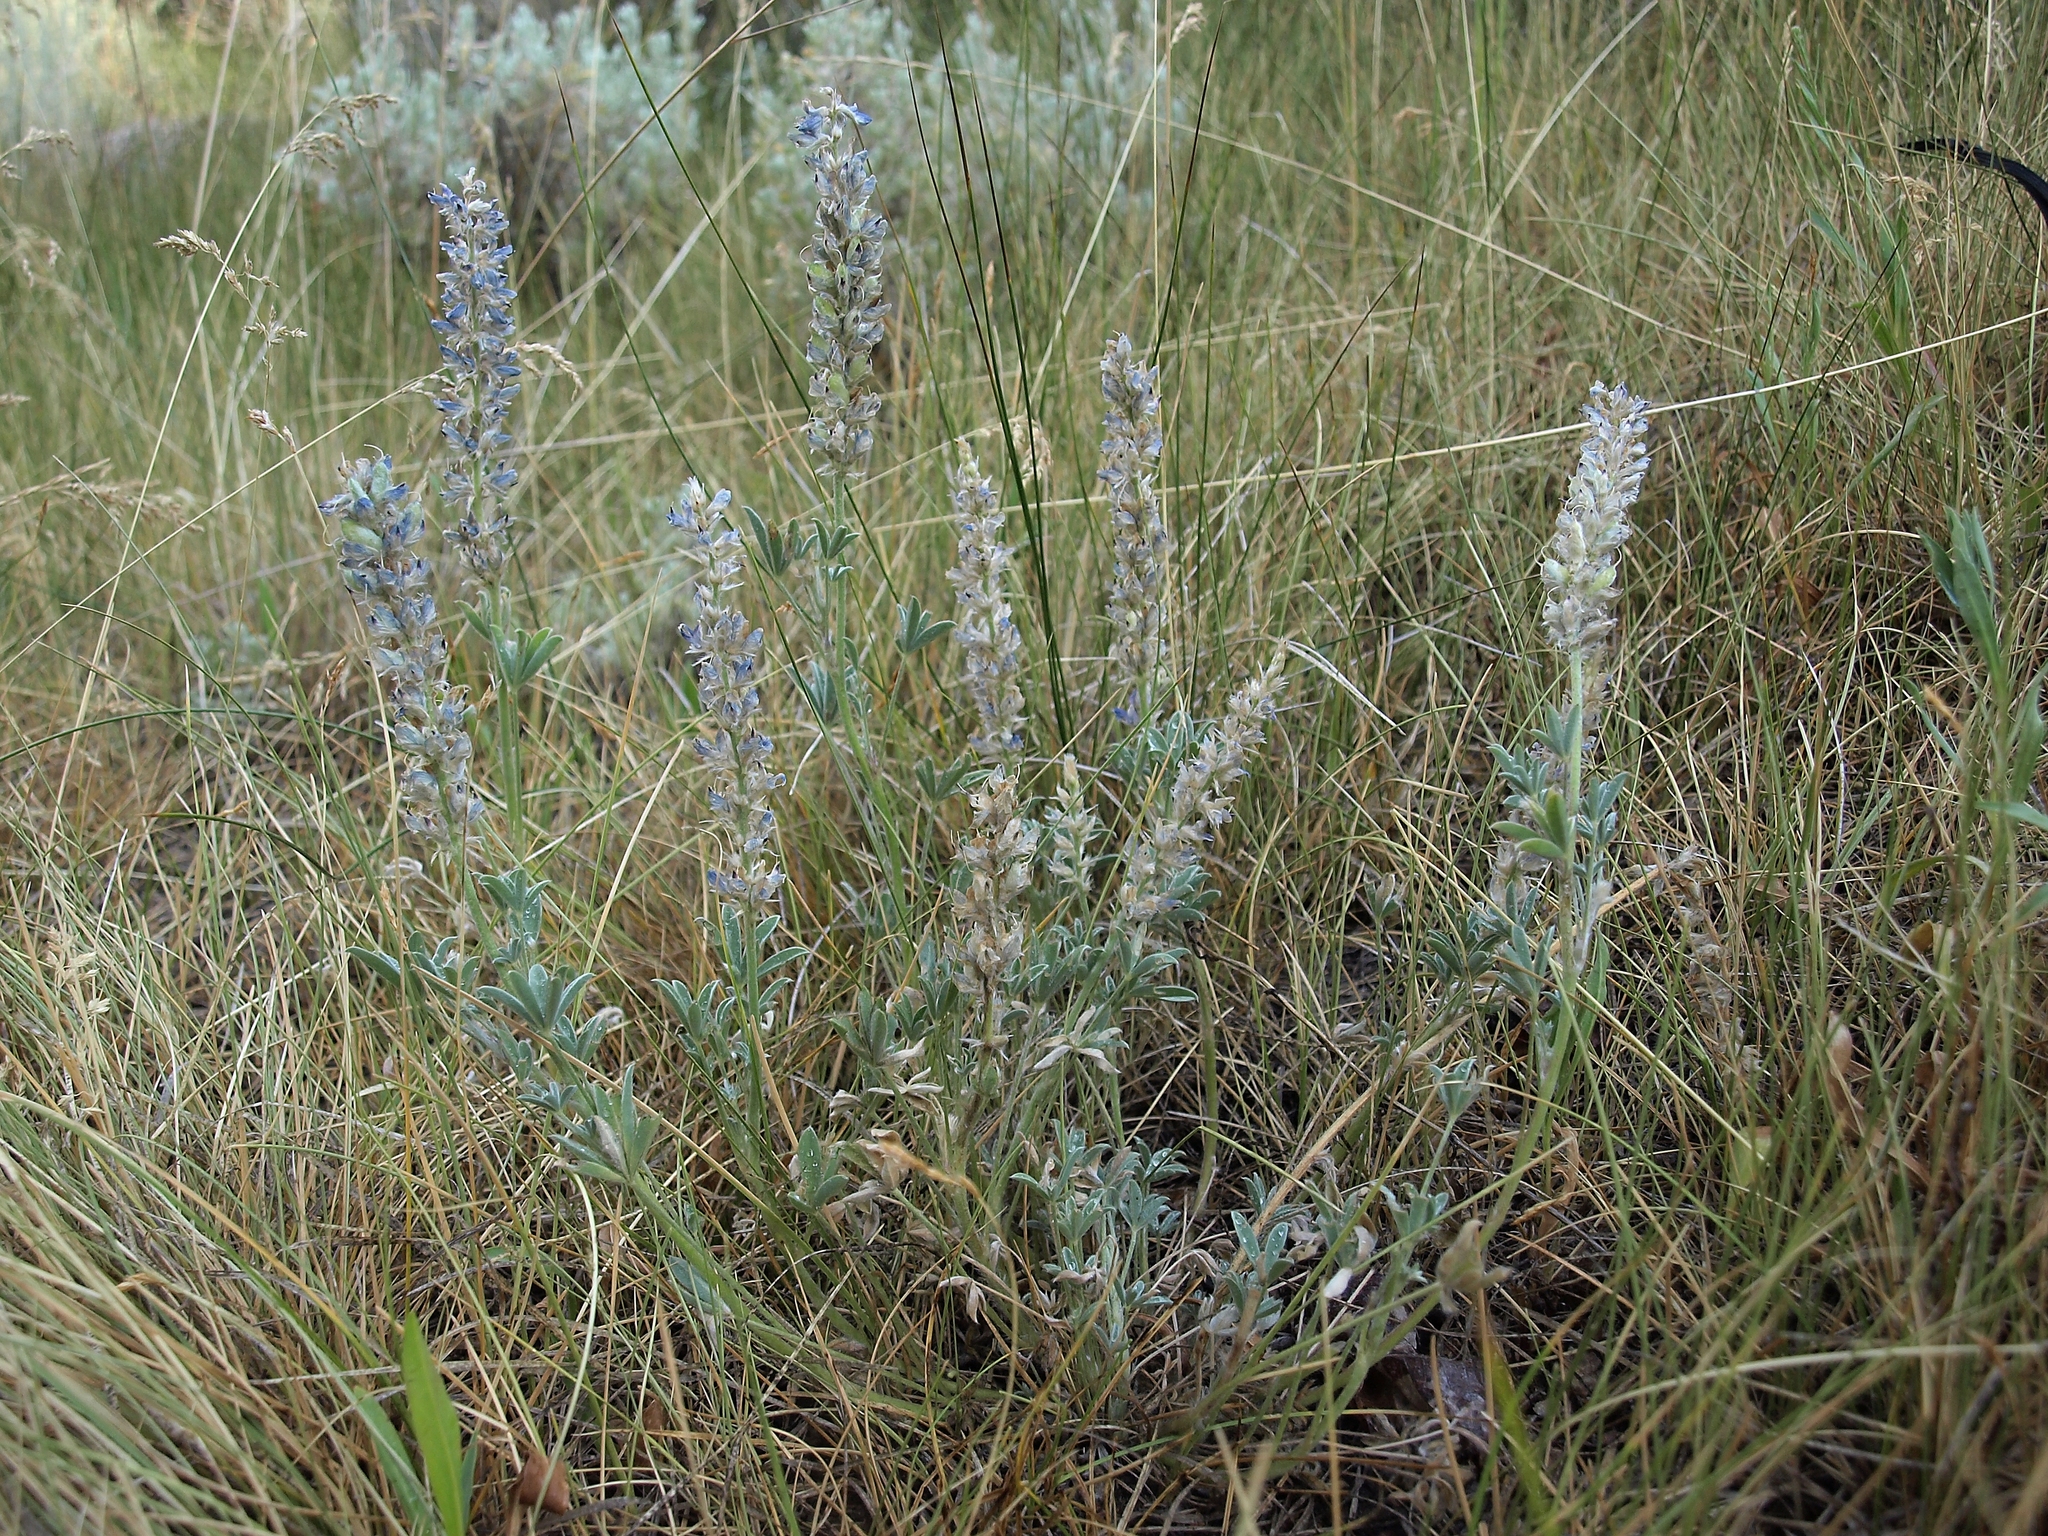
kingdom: Plantae
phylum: Tracheophyta
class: Magnoliopsida
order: Fabales
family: Fabaceae
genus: Lupinus
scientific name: Lupinus confertus
